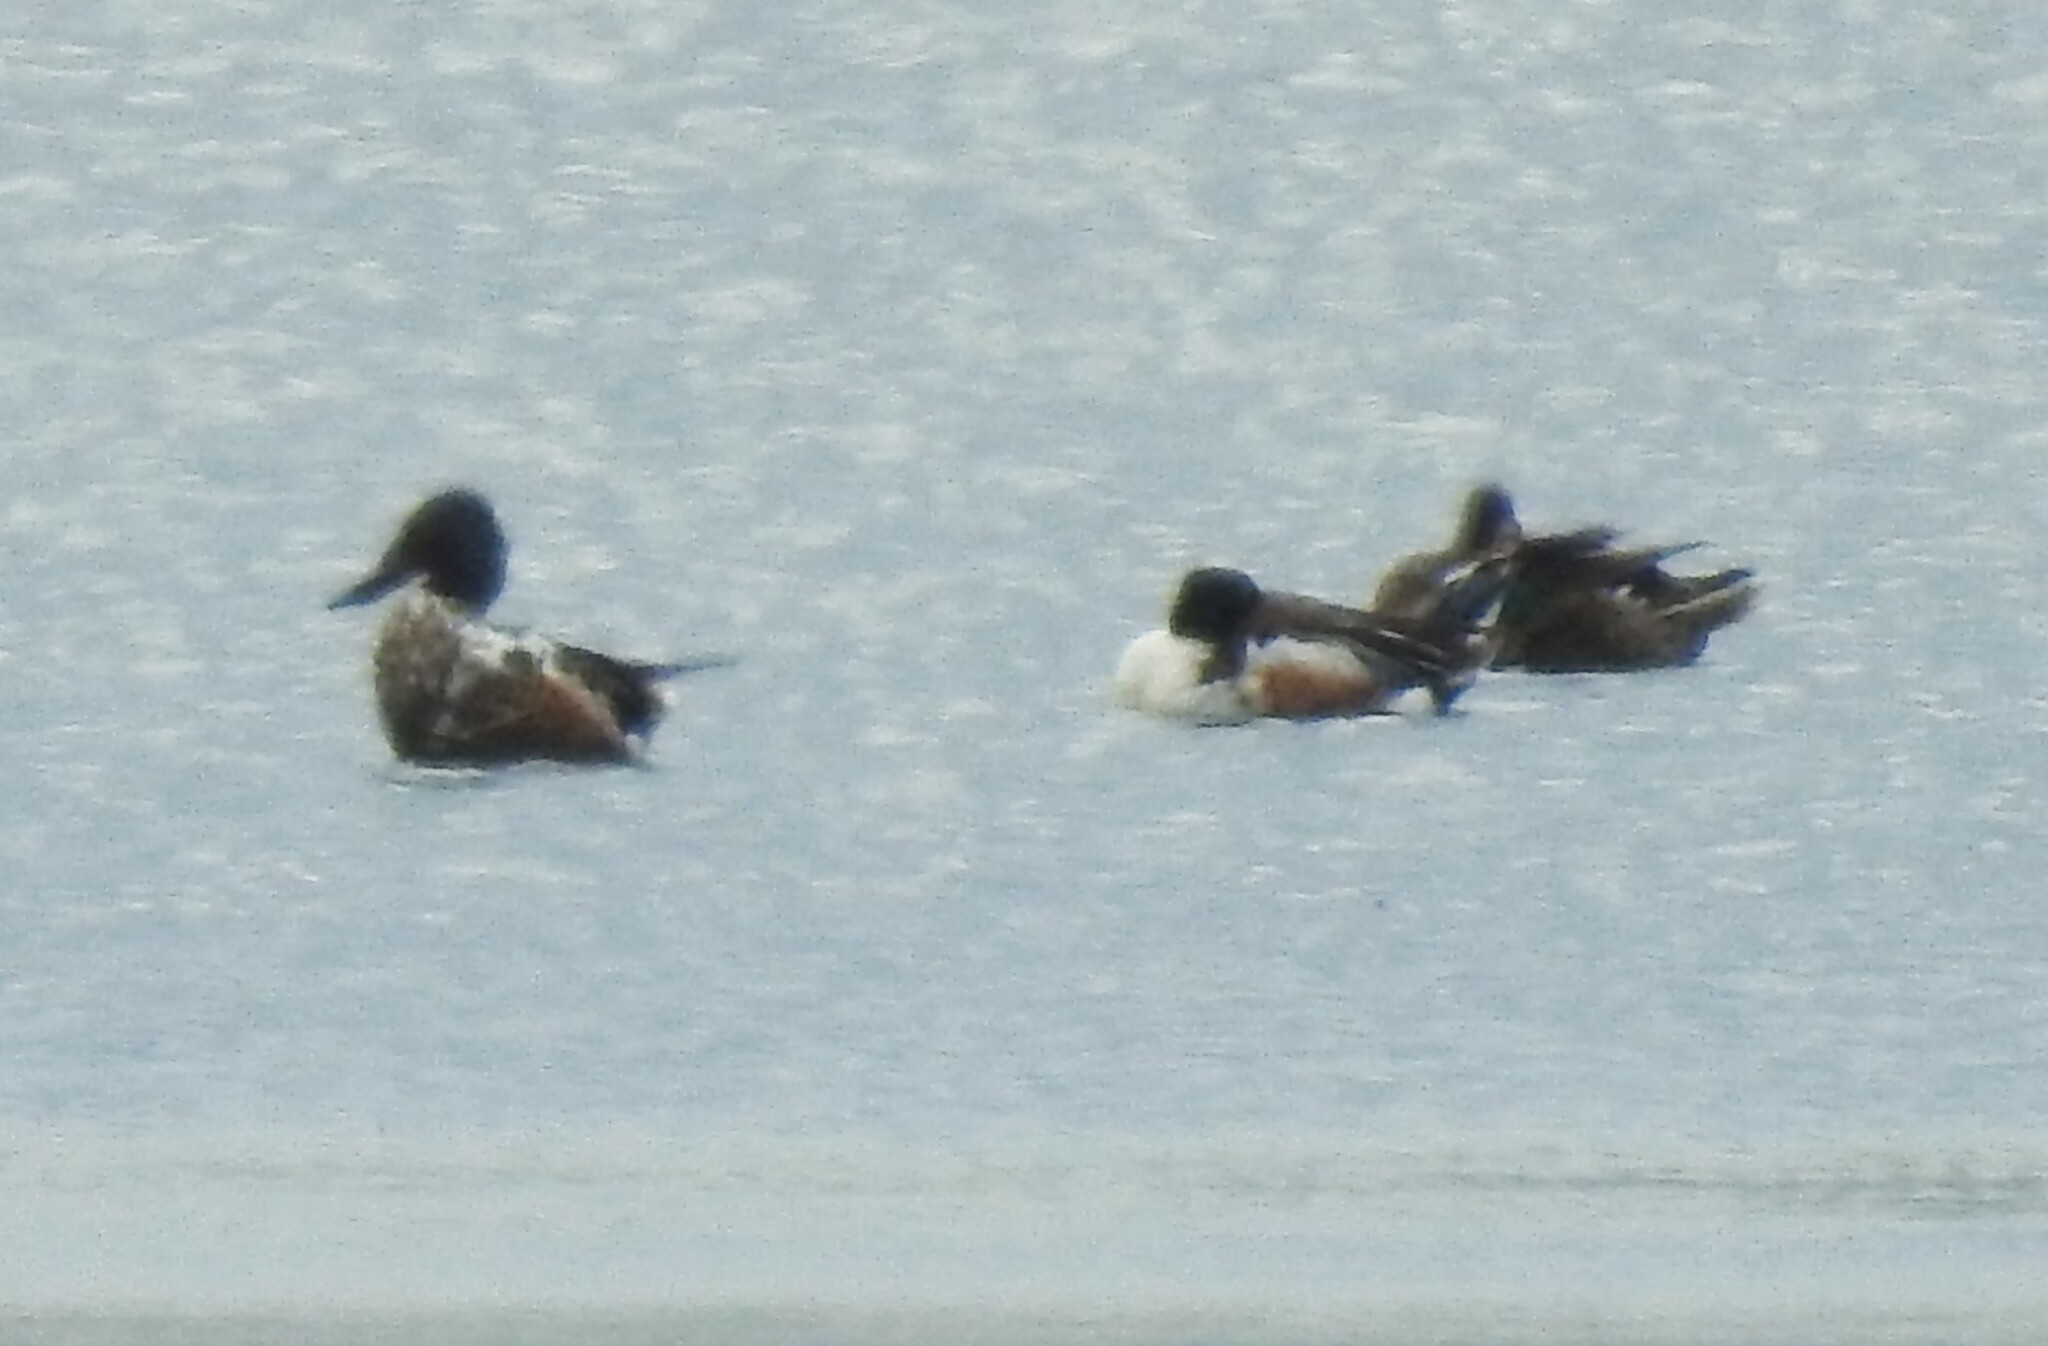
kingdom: Animalia
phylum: Chordata
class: Aves
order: Anseriformes
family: Anatidae
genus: Spatula
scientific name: Spatula clypeata
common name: Northern shoveler
